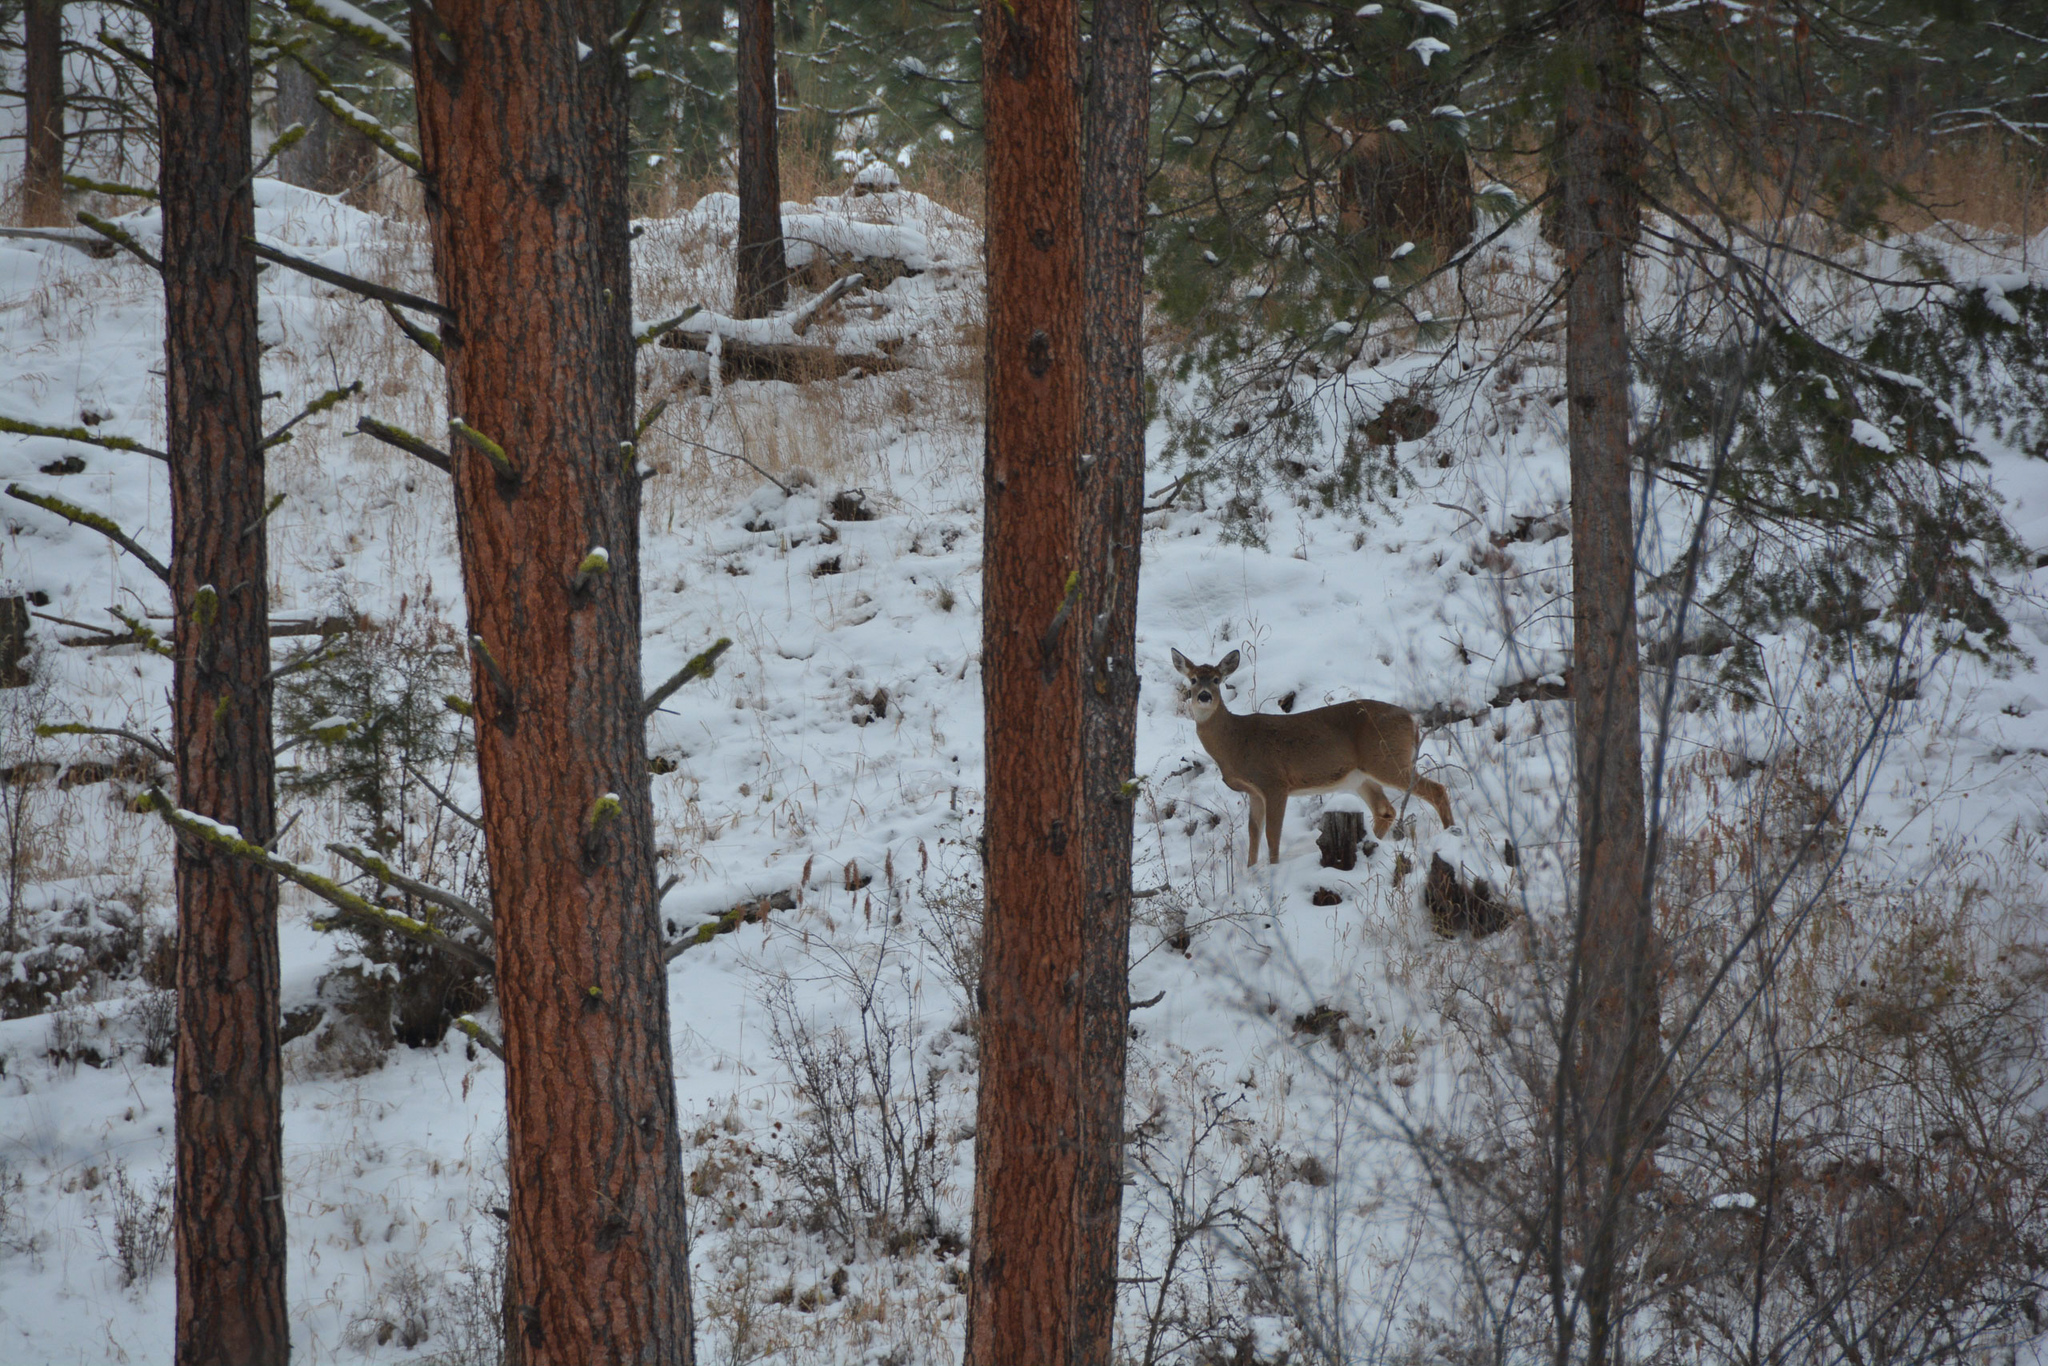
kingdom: Animalia
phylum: Chordata
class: Mammalia
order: Artiodactyla
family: Cervidae
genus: Odocoileus
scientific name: Odocoileus virginianus
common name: White-tailed deer
